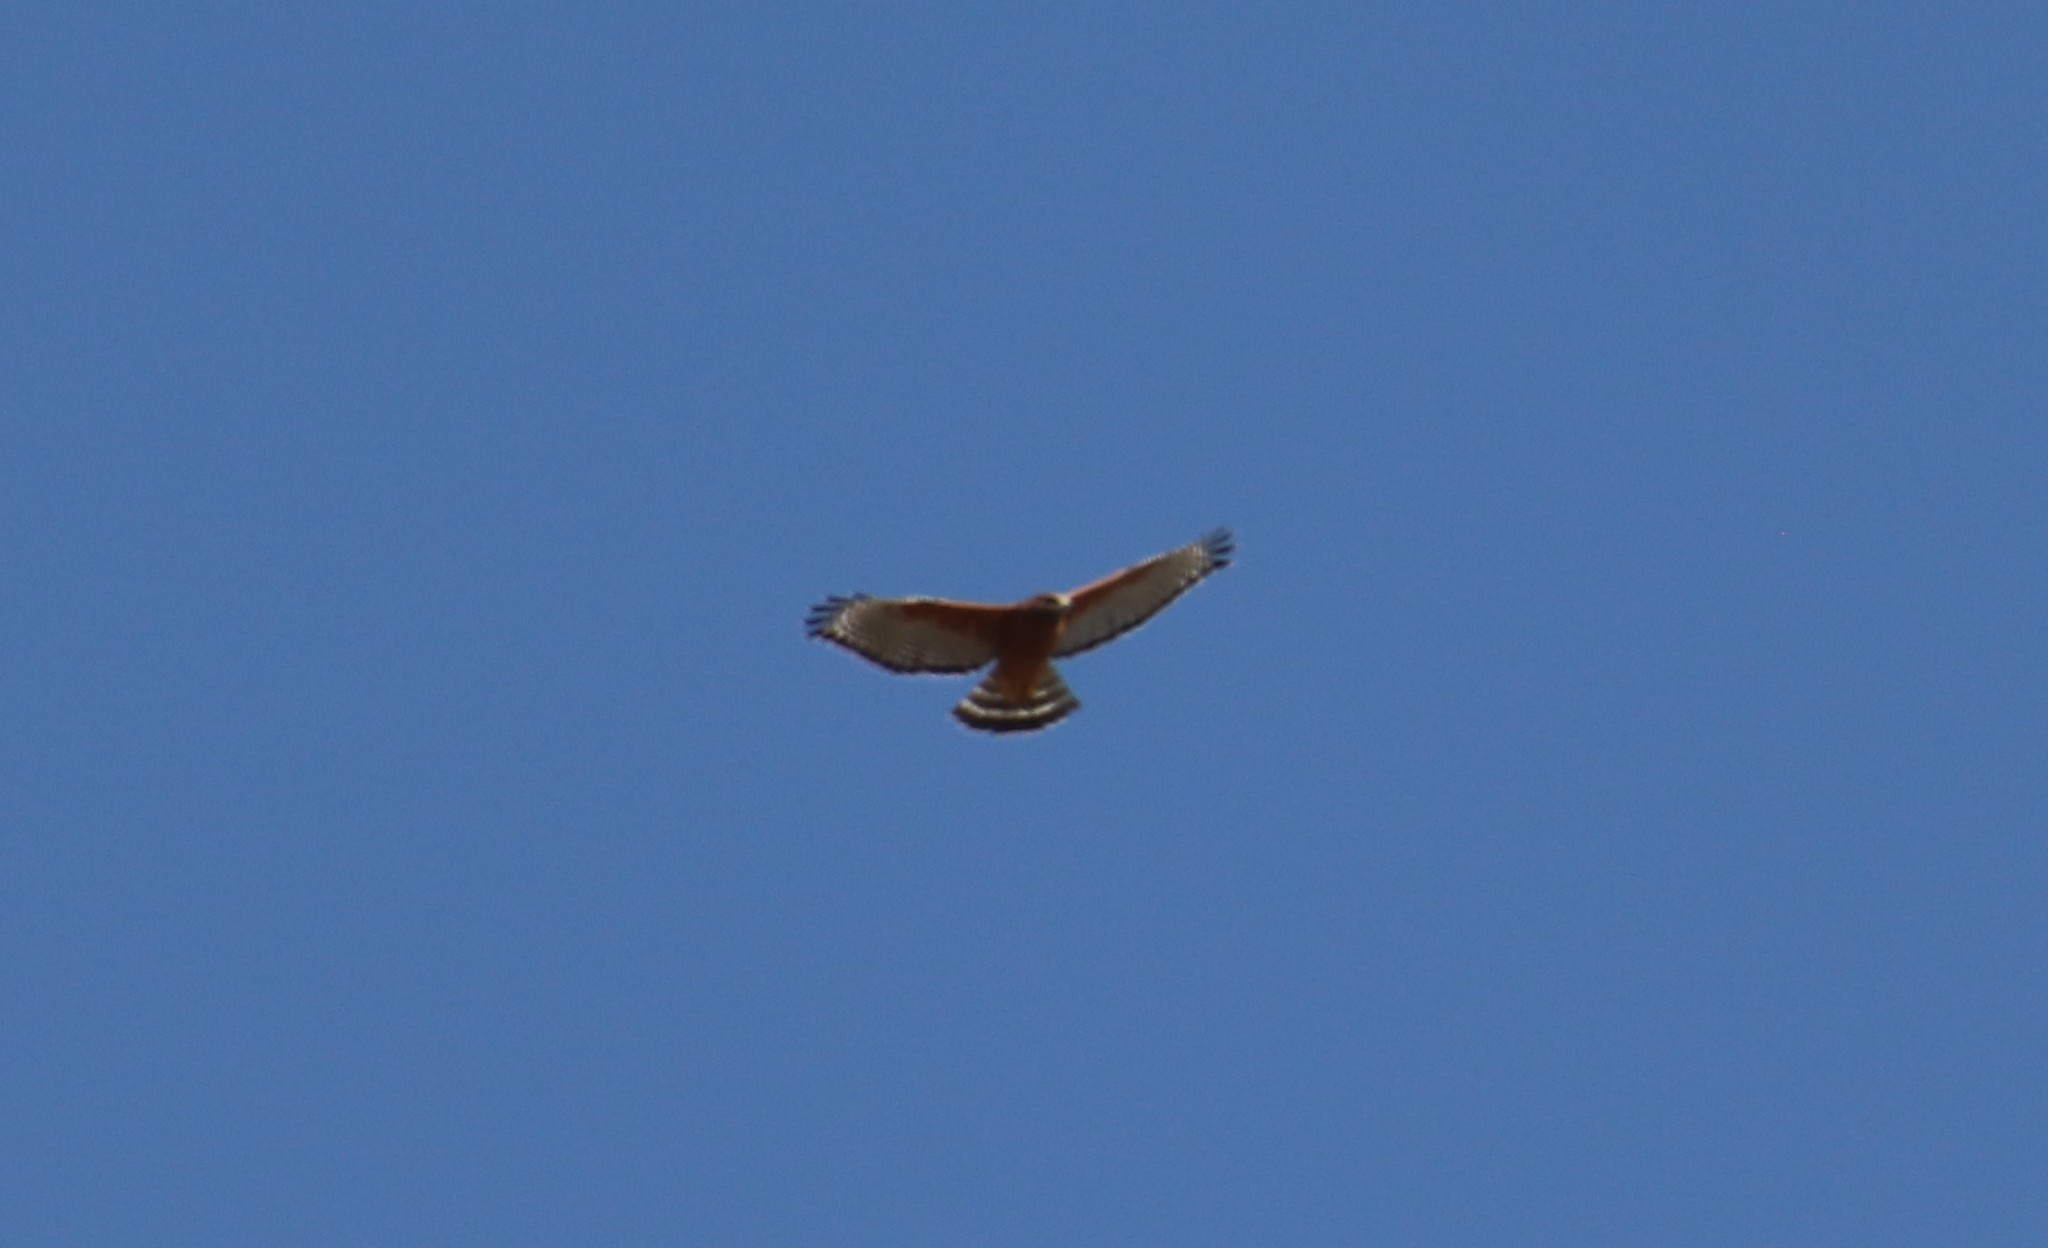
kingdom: Animalia
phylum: Chordata
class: Aves
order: Accipitriformes
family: Accipitridae
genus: Buteo
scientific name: Buteo lineatus
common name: Red-shouldered hawk
